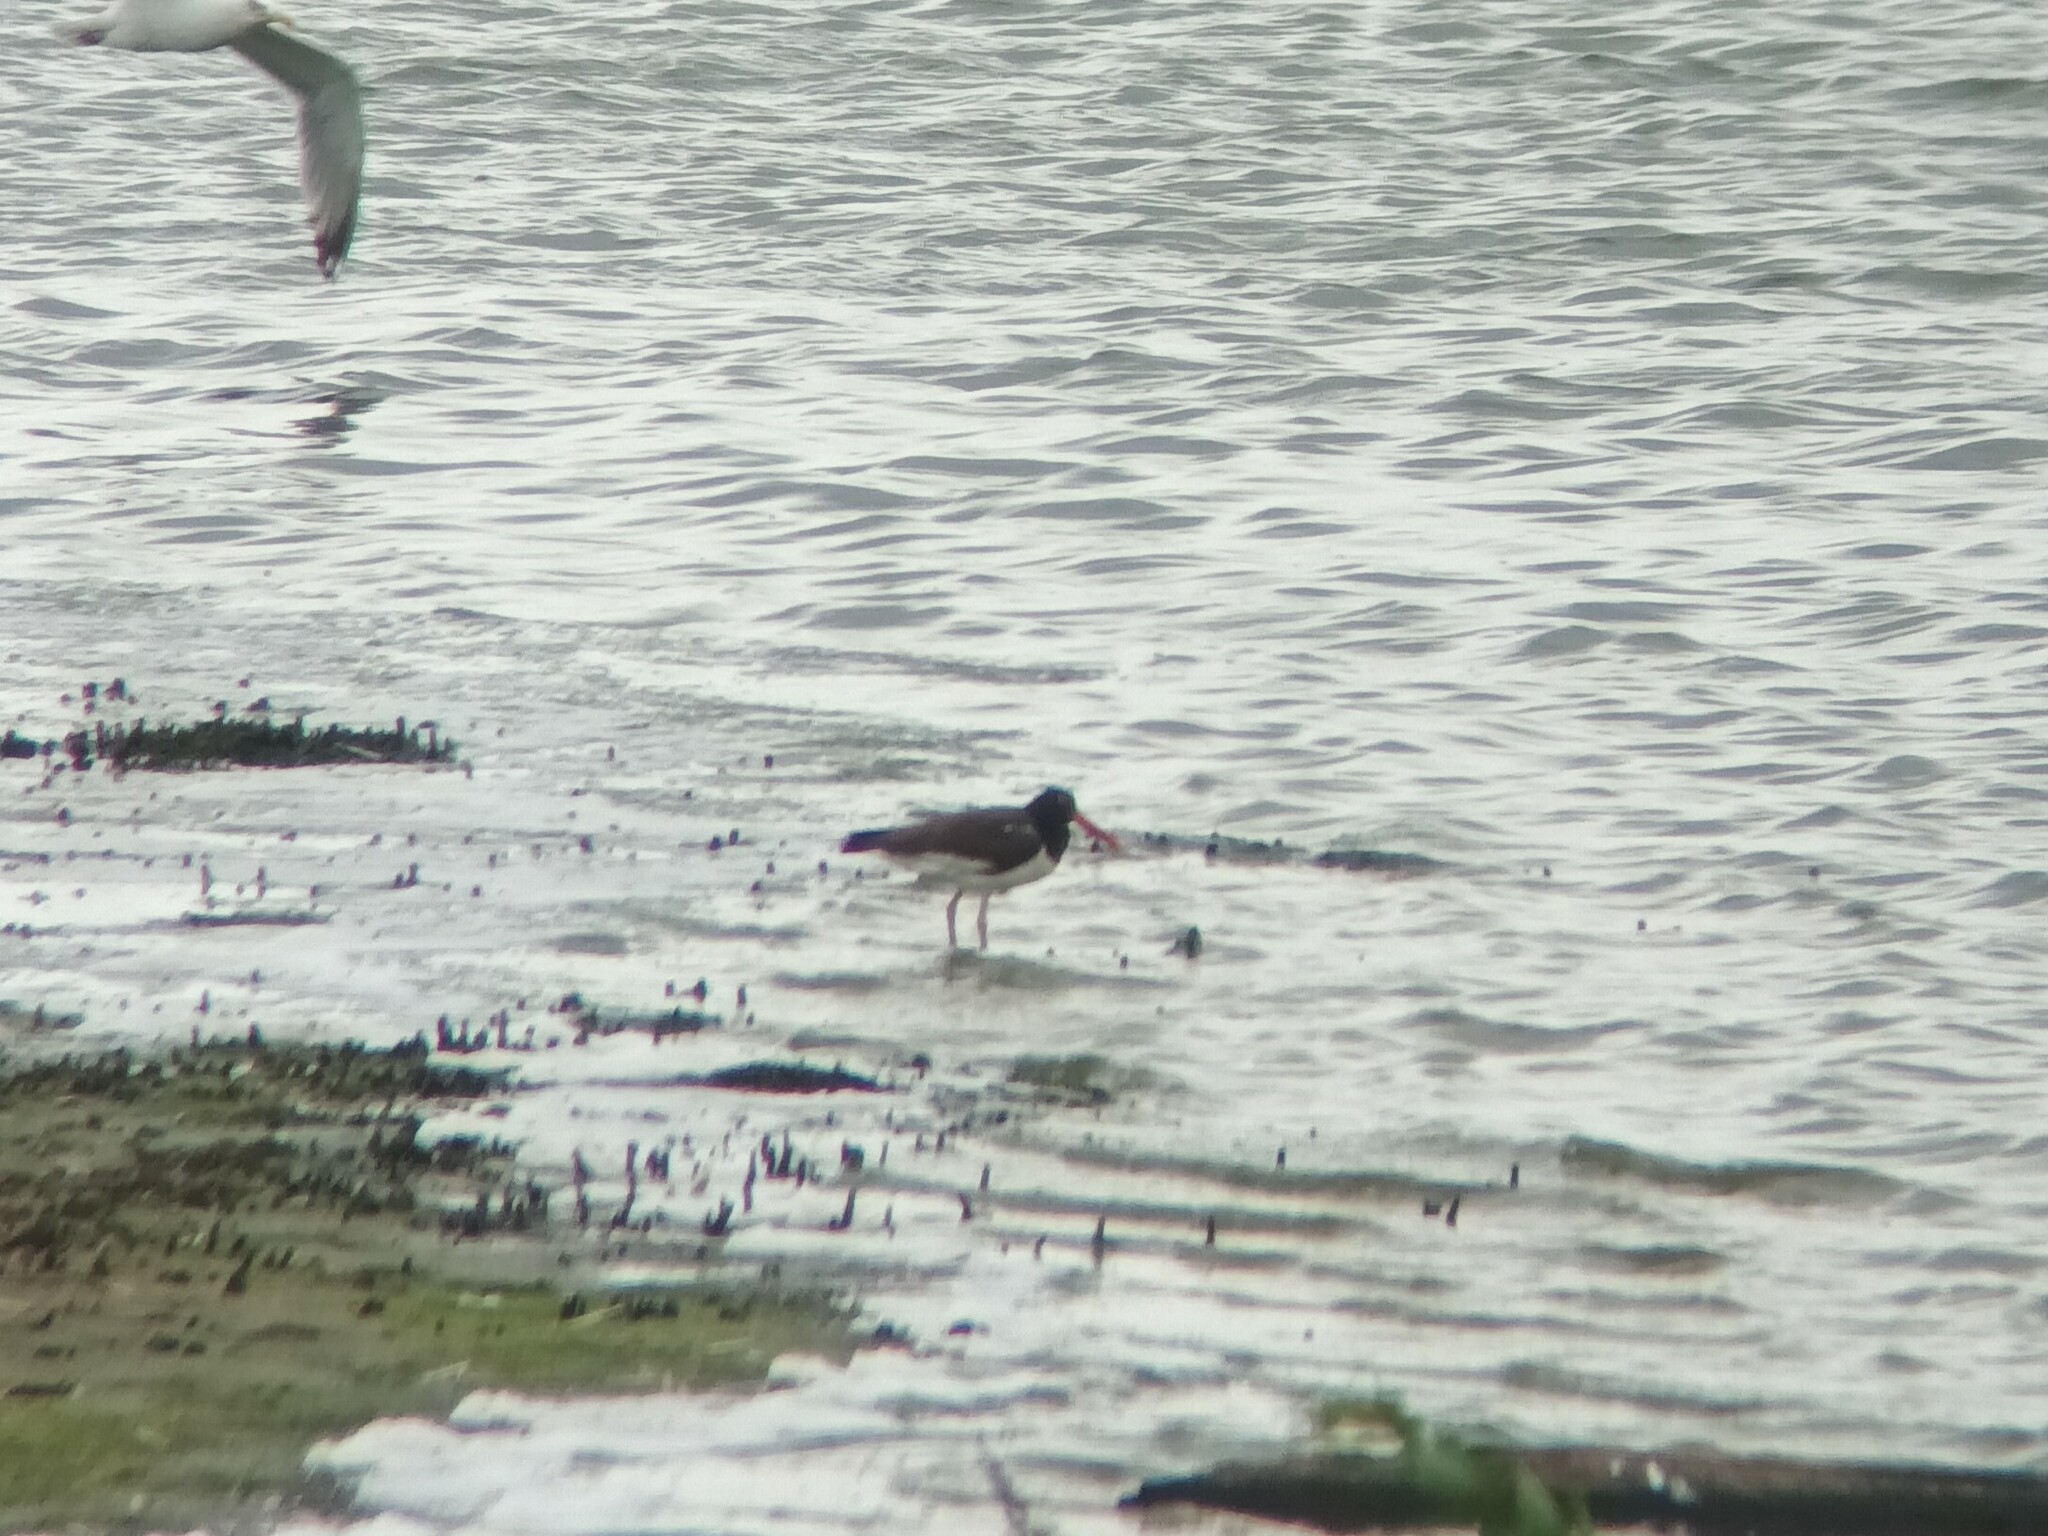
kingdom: Animalia
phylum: Chordata
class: Aves
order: Charadriiformes
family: Haematopodidae
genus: Haematopus
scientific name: Haematopus palliatus
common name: American oystercatcher
